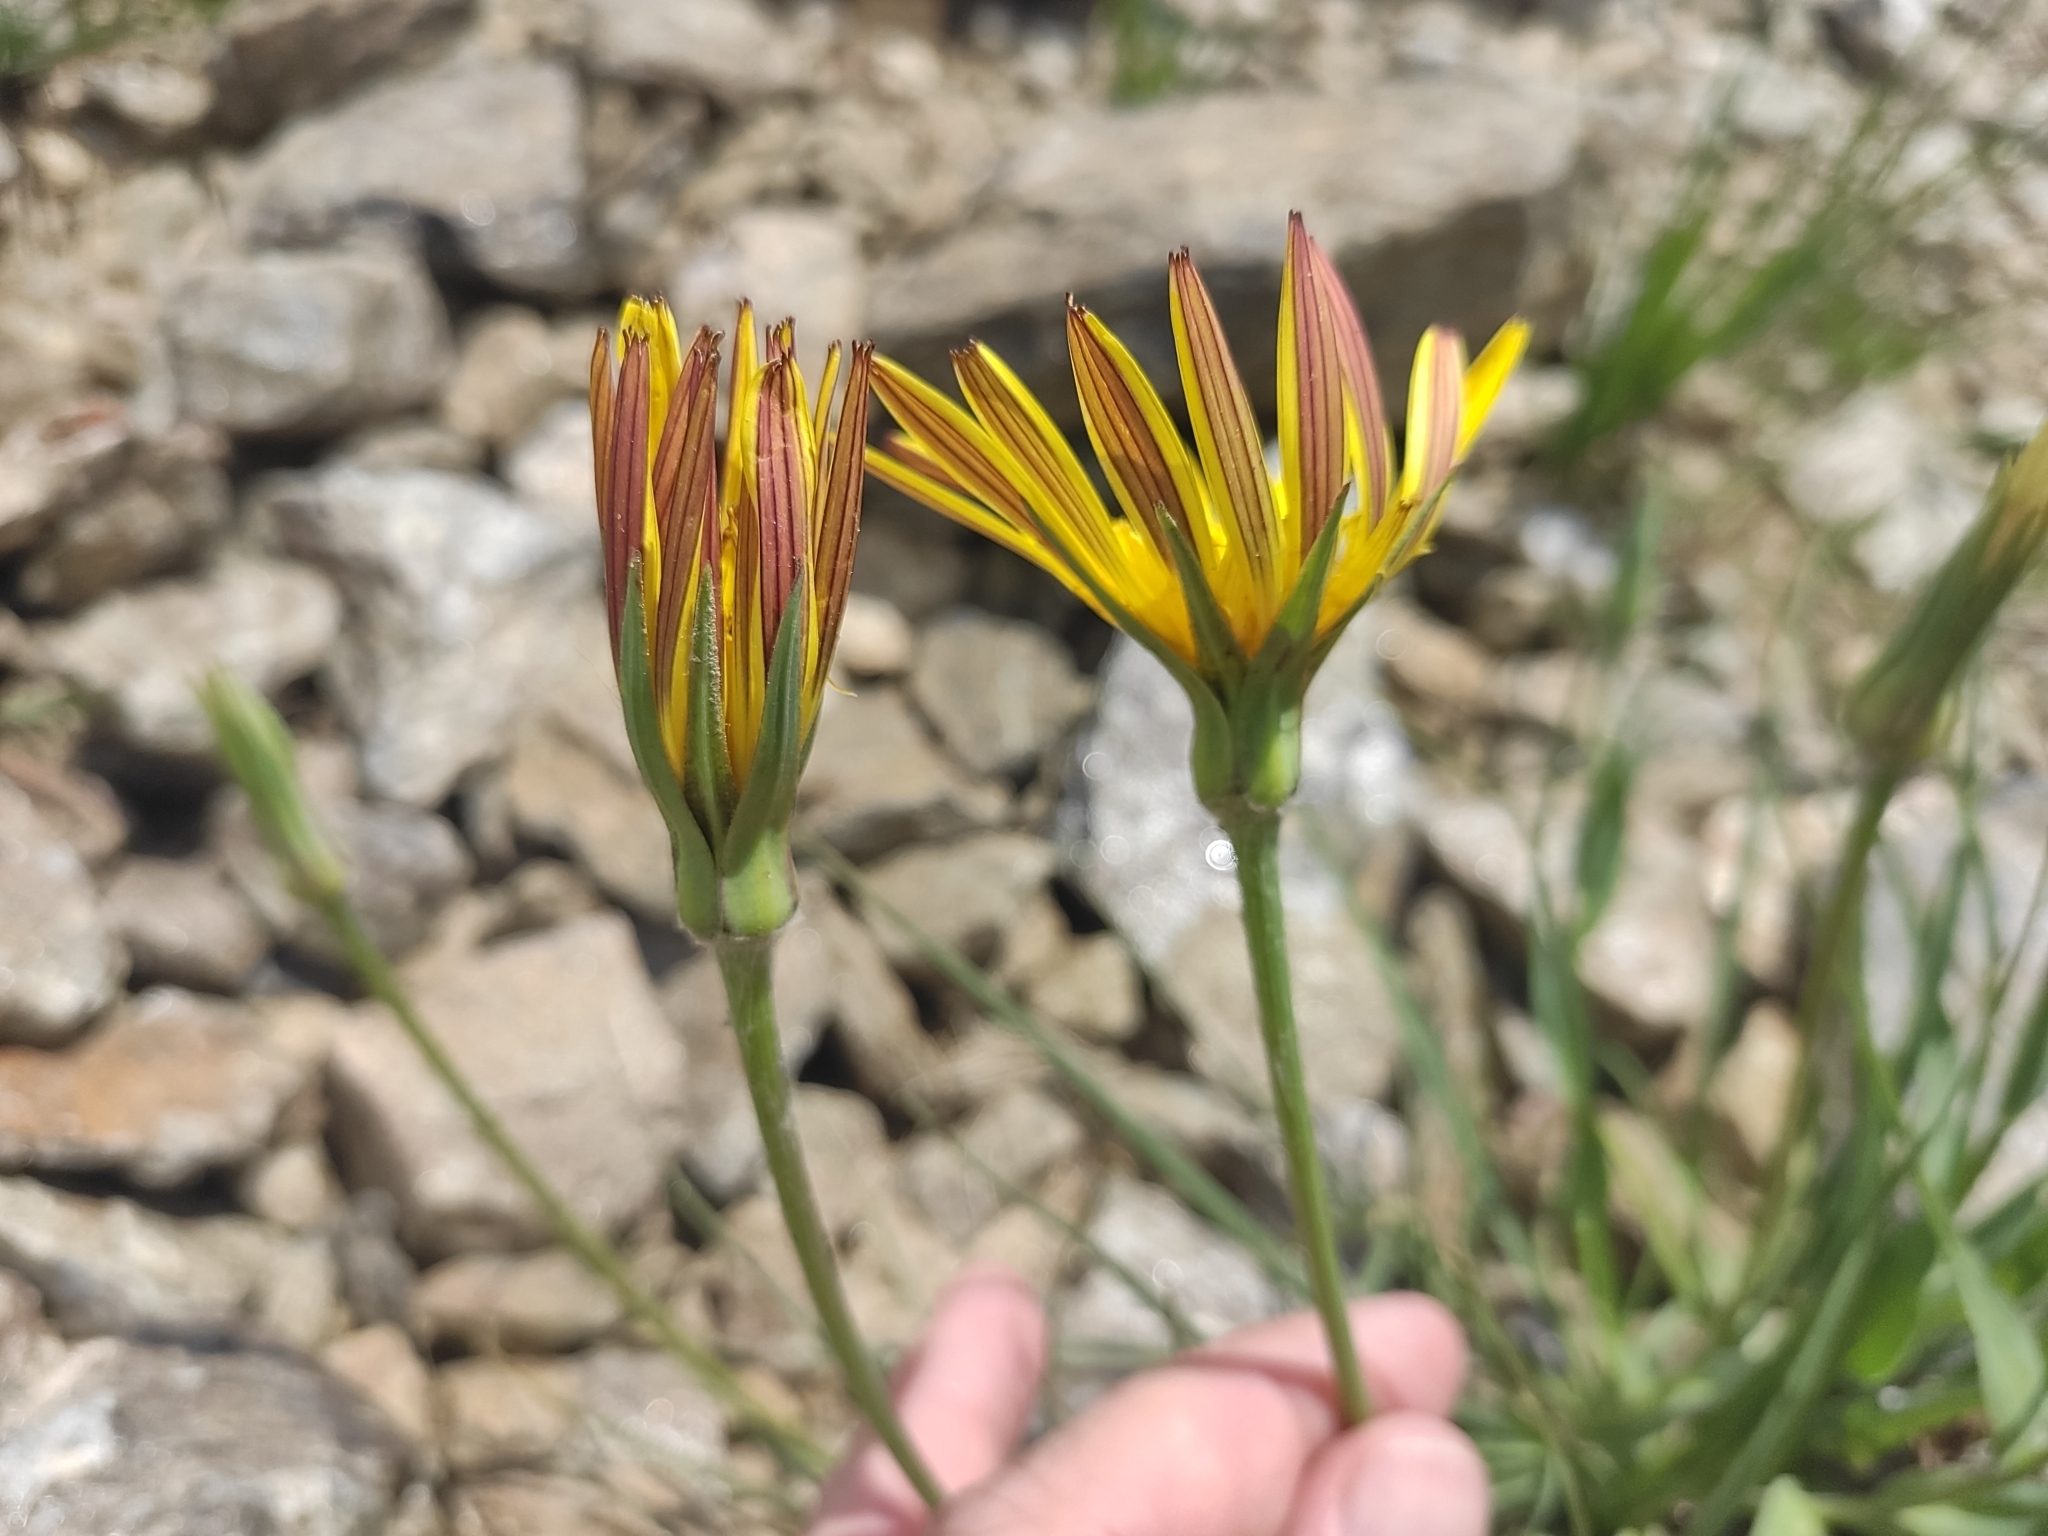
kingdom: Plantae
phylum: Tracheophyta
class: Magnoliopsida
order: Asterales
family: Asteraceae
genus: Tragopogon
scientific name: Tragopogon reticulatus
